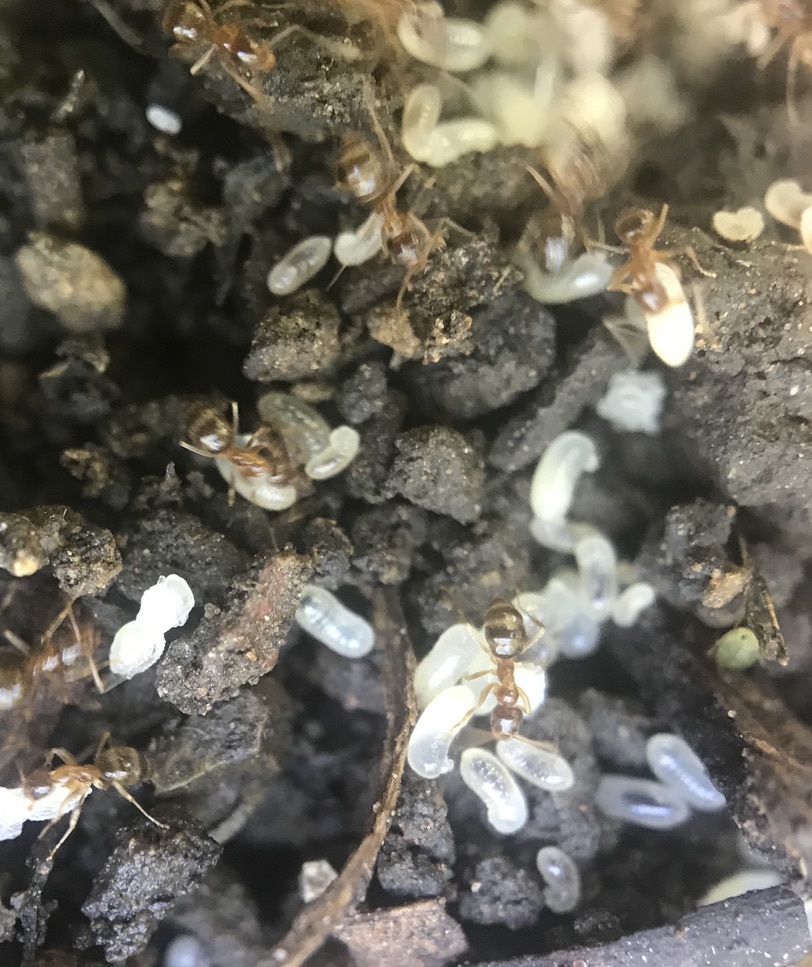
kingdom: Animalia
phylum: Arthropoda
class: Insecta
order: Hymenoptera
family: Formicidae
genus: Linepithema
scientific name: Linepithema humile
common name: Argentine ant
